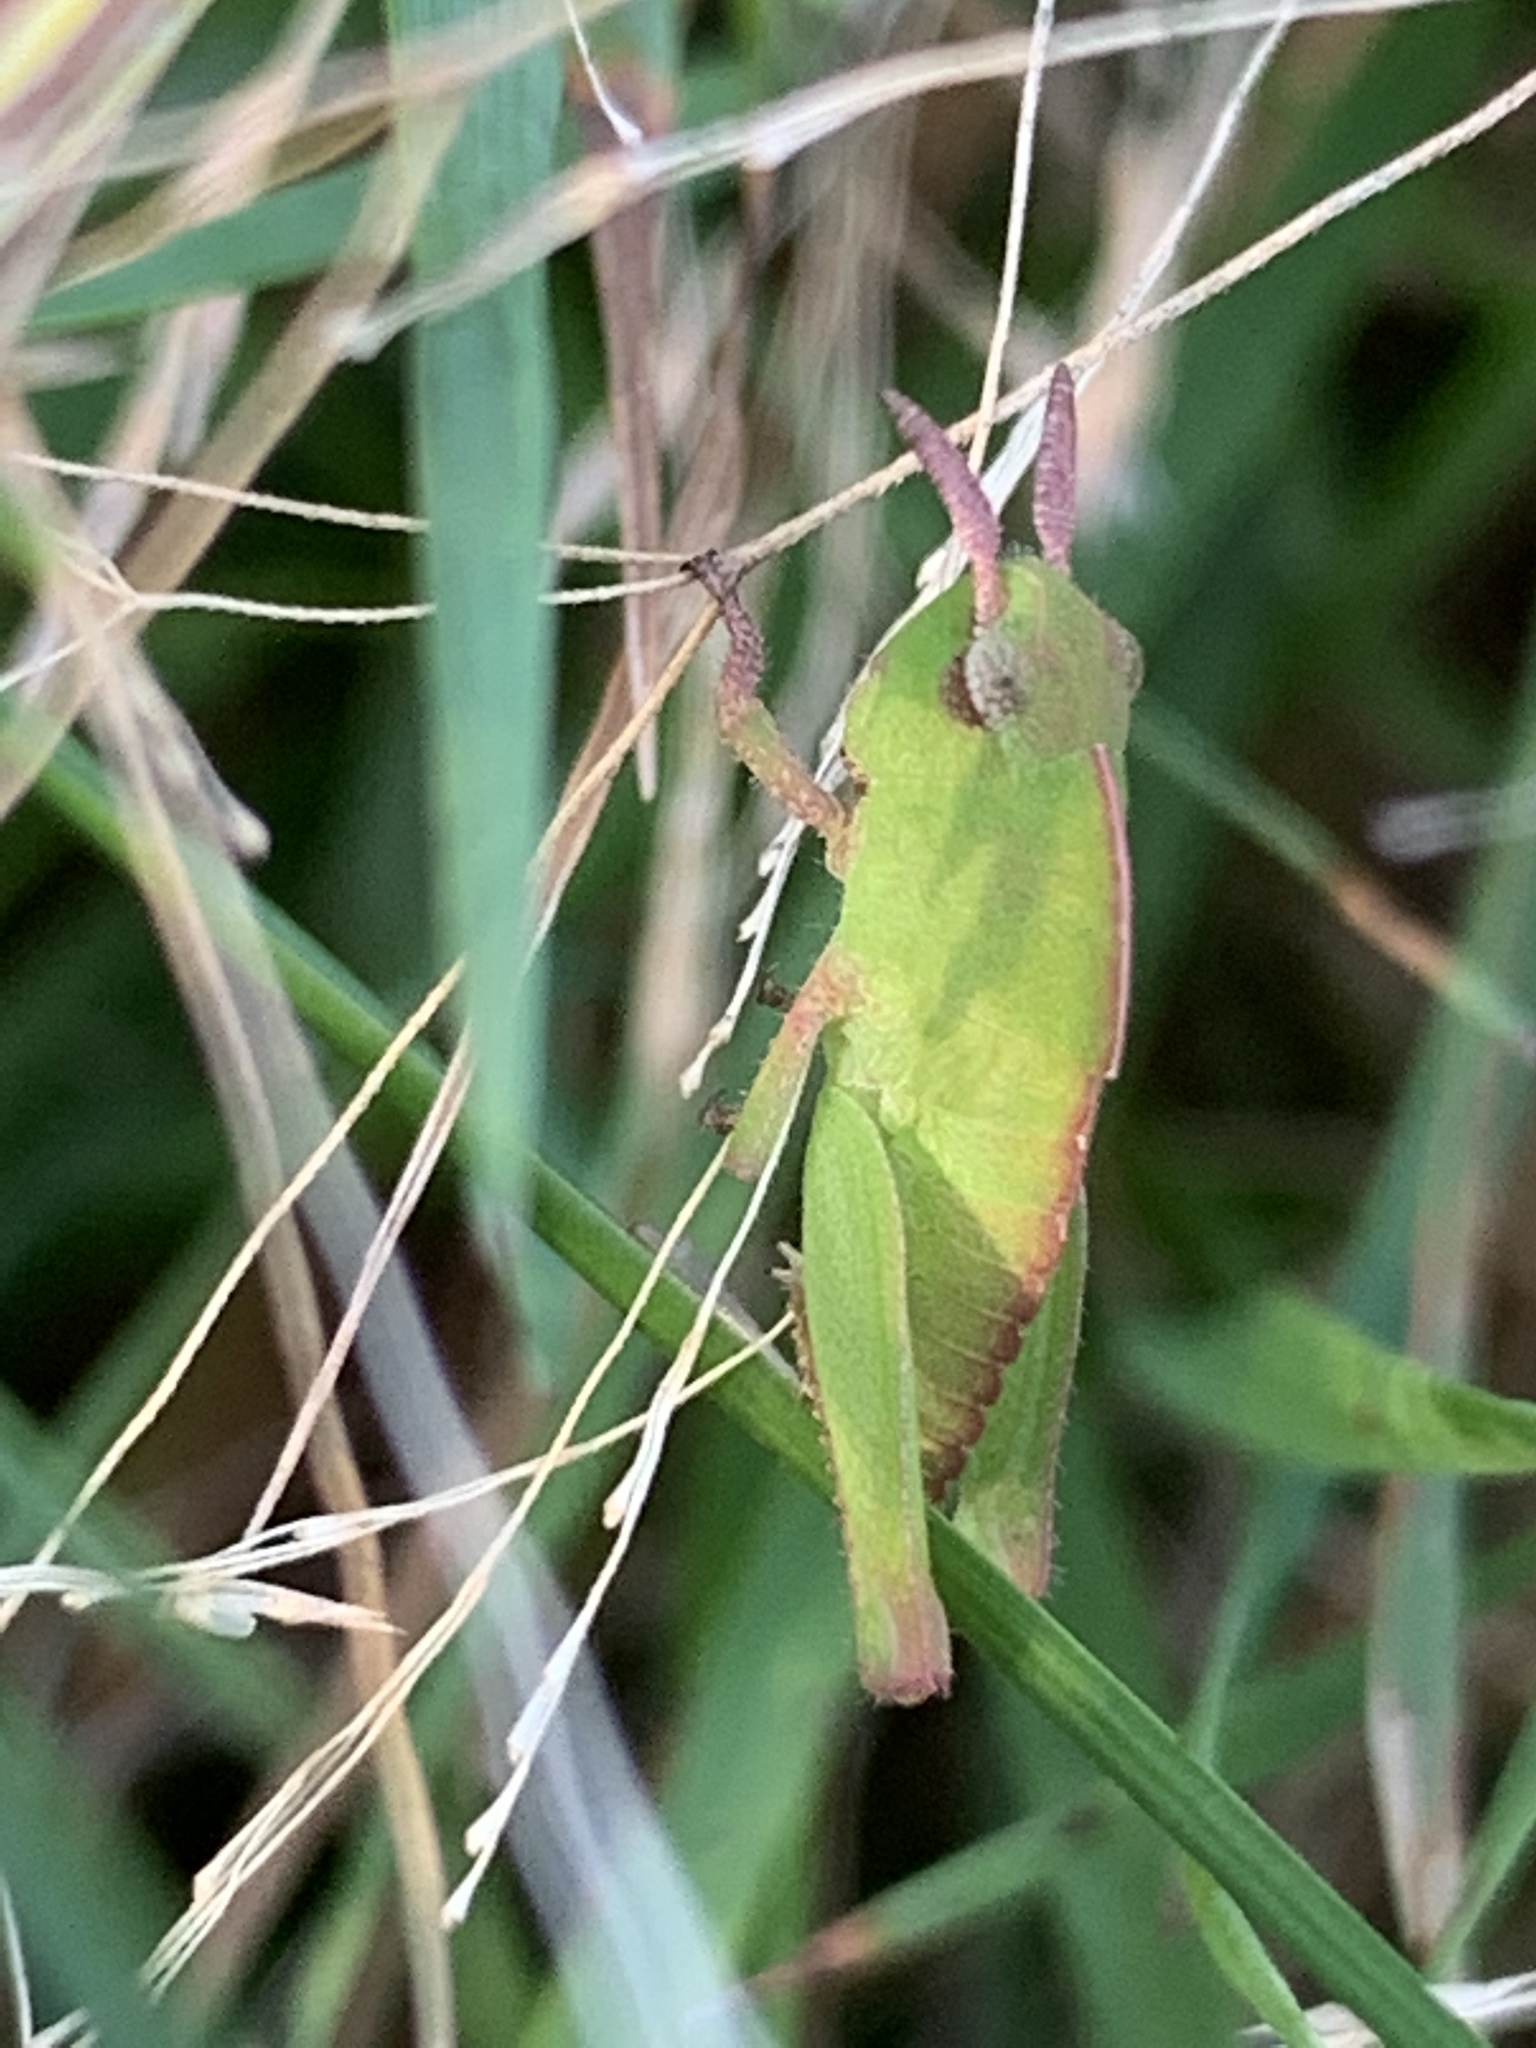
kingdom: Animalia
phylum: Arthropoda
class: Insecta
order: Orthoptera
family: Acrididae
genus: Chortophaga
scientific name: Chortophaga viridifasciata
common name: Green-striped grasshopper
